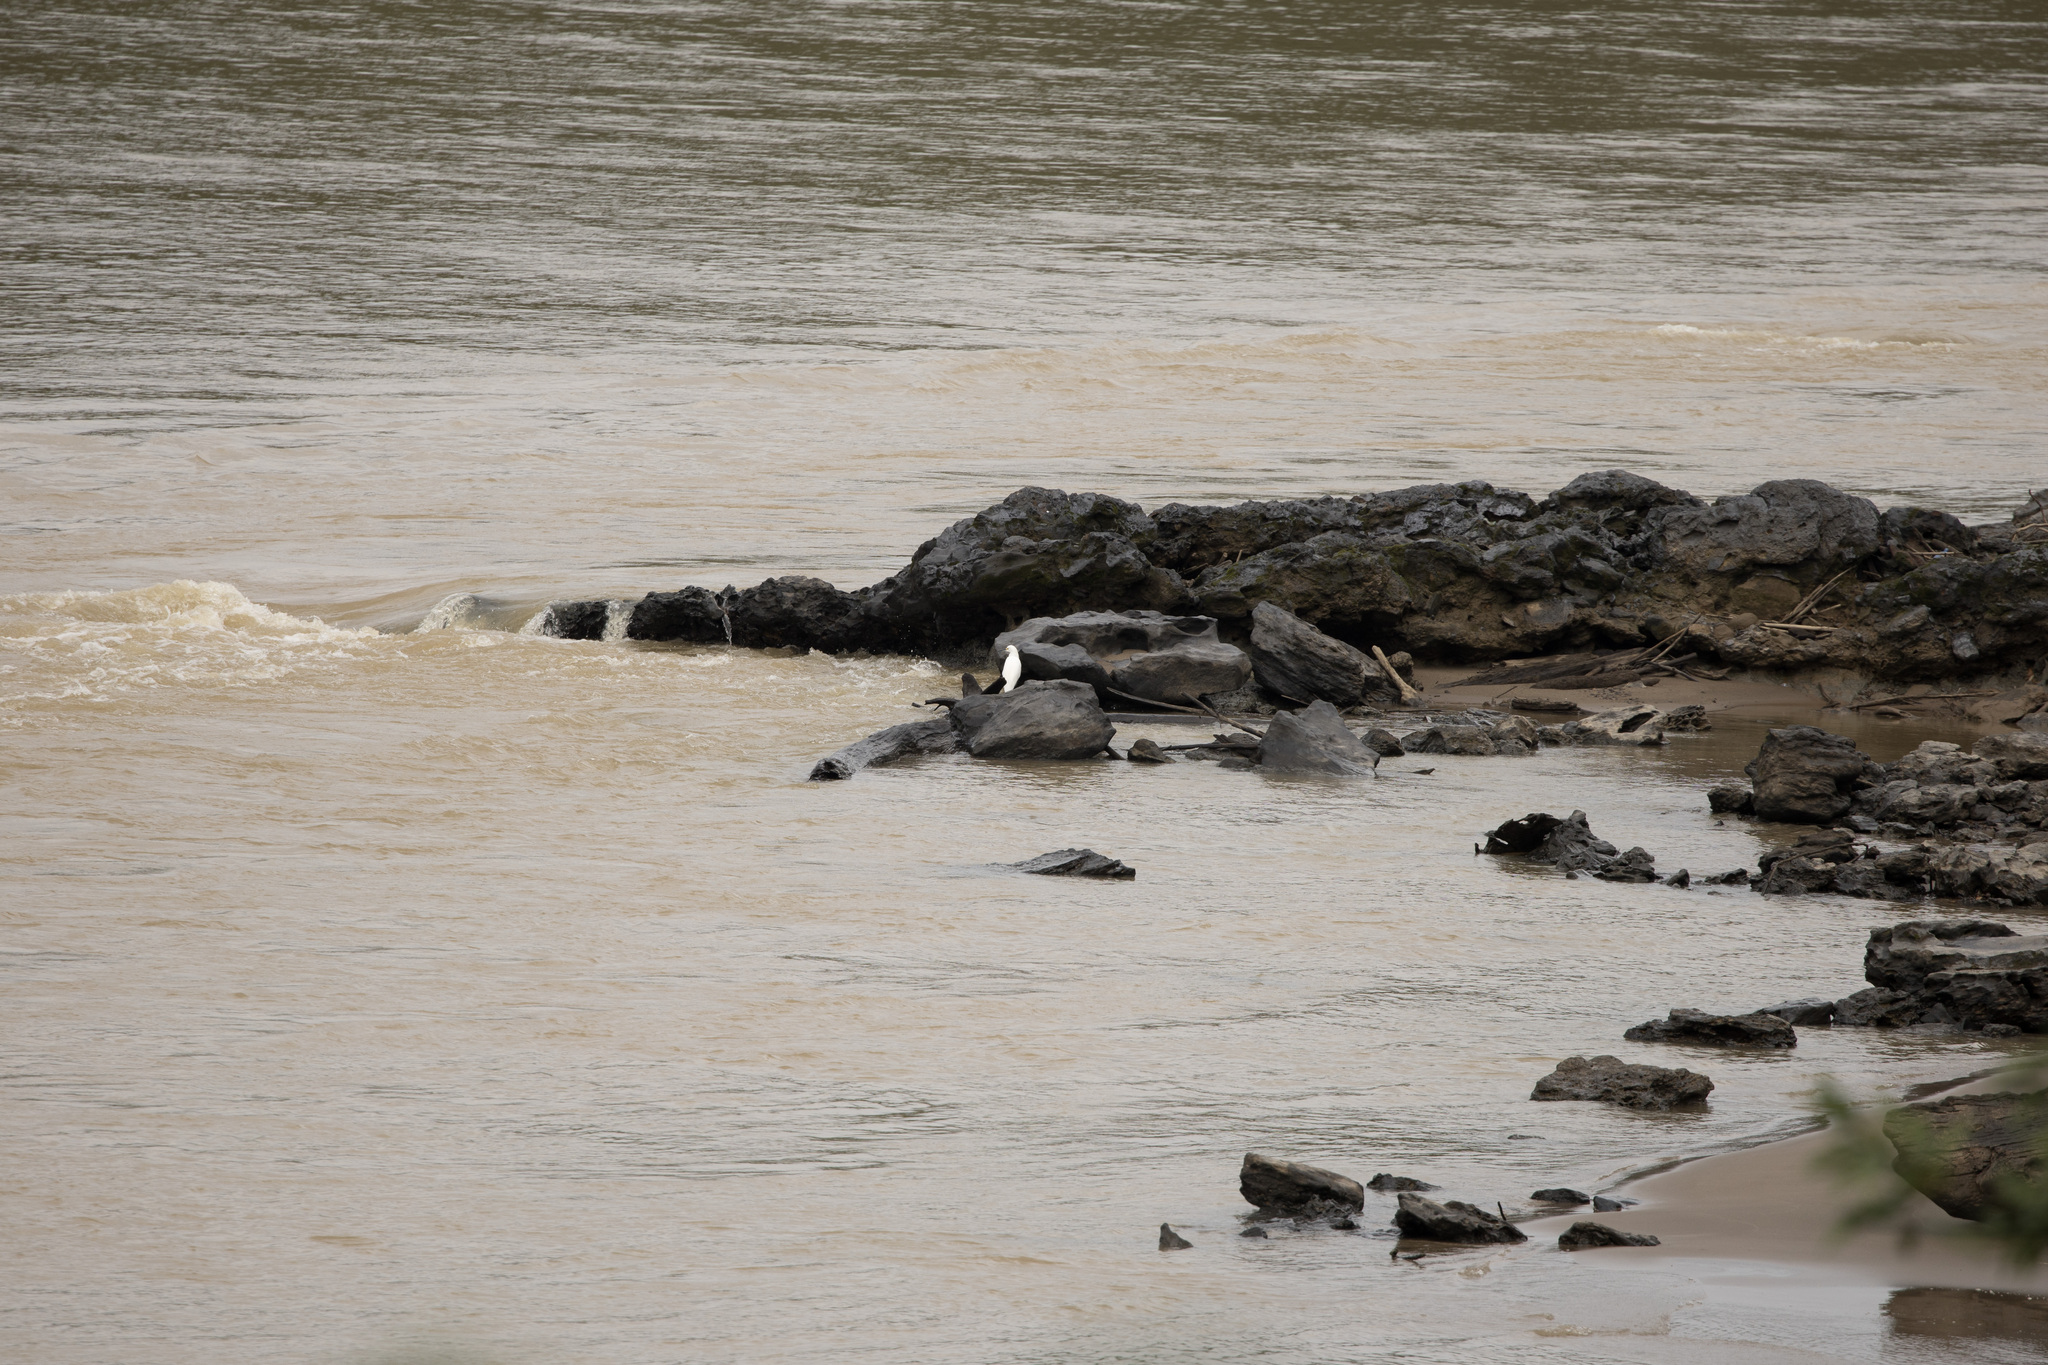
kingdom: Animalia
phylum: Chordata
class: Aves
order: Pelecaniformes
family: Ardeidae
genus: Egretta
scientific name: Egretta thula
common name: Snowy egret
